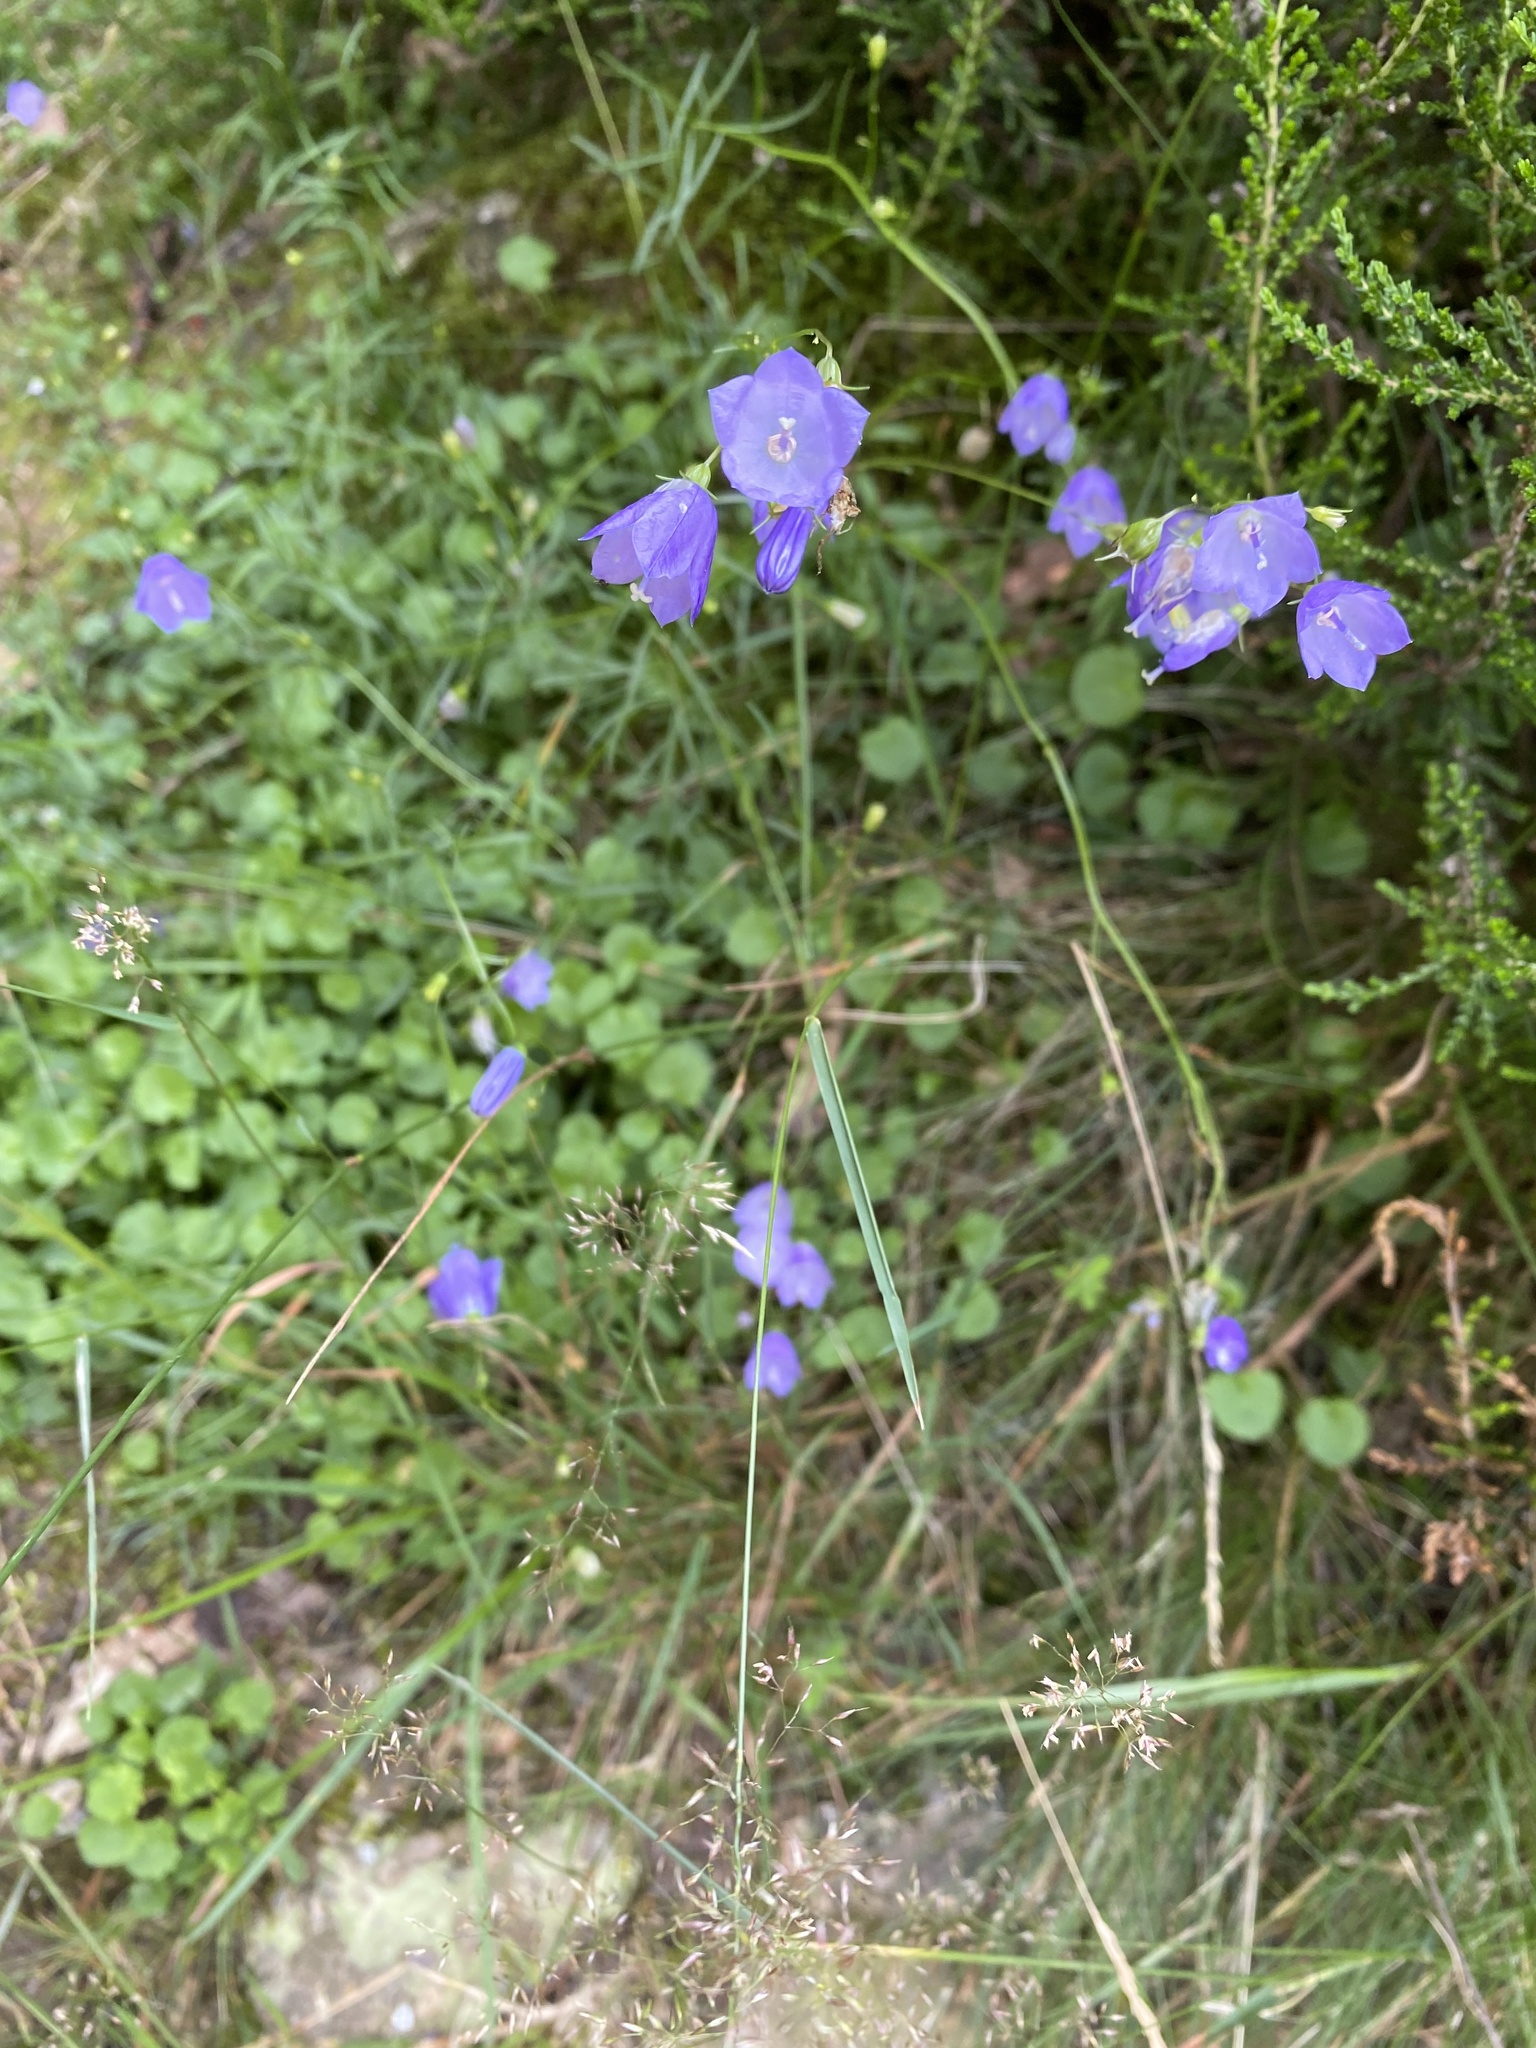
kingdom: Plantae
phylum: Tracheophyta
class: Magnoliopsida
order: Asterales
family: Campanulaceae
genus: Campanula
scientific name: Campanula rotundifolia
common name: Harebell
